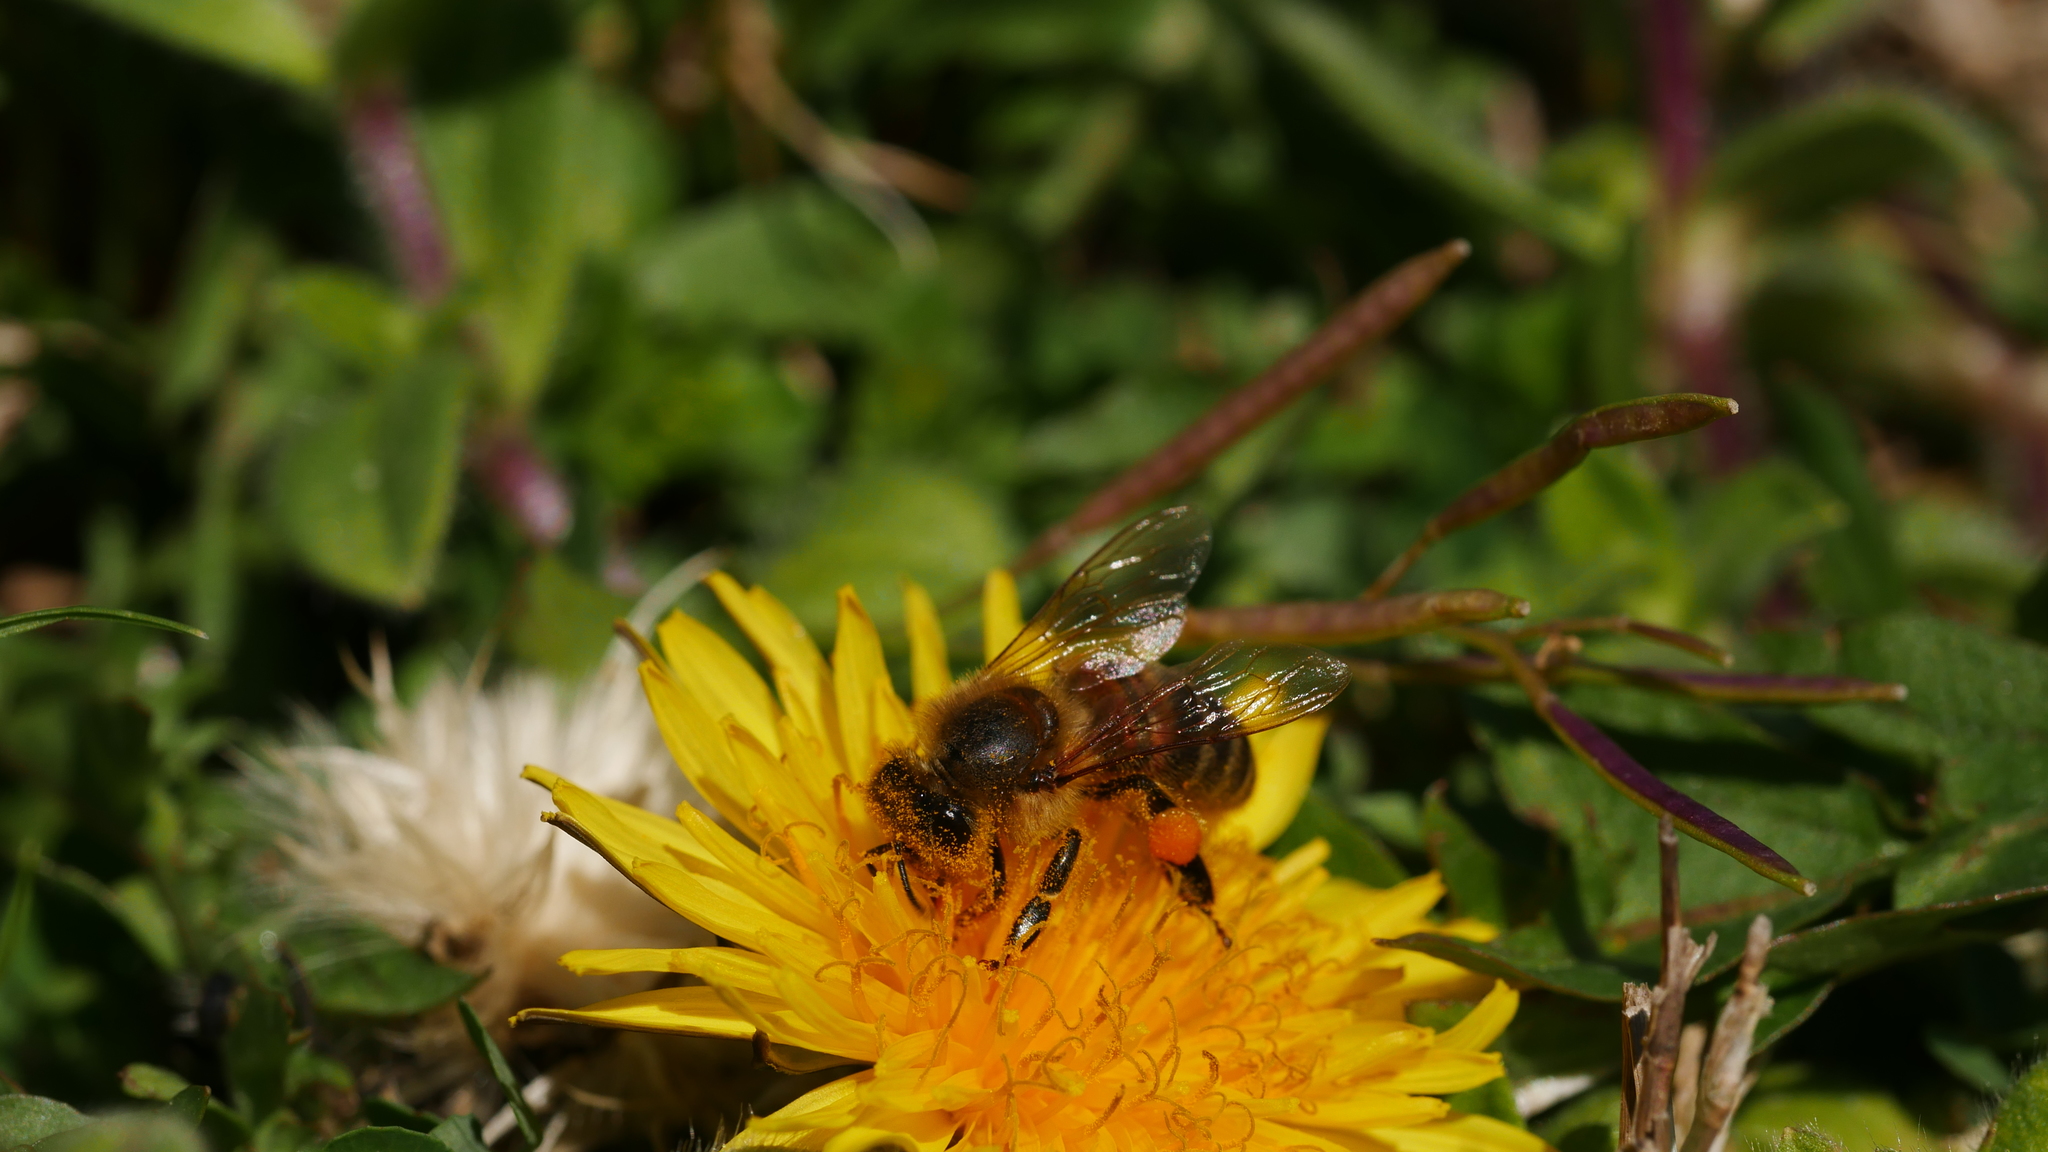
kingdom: Animalia
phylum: Arthropoda
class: Insecta
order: Hymenoptera
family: Apidae
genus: Apis
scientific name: Apis mellifera
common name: Honey bee
